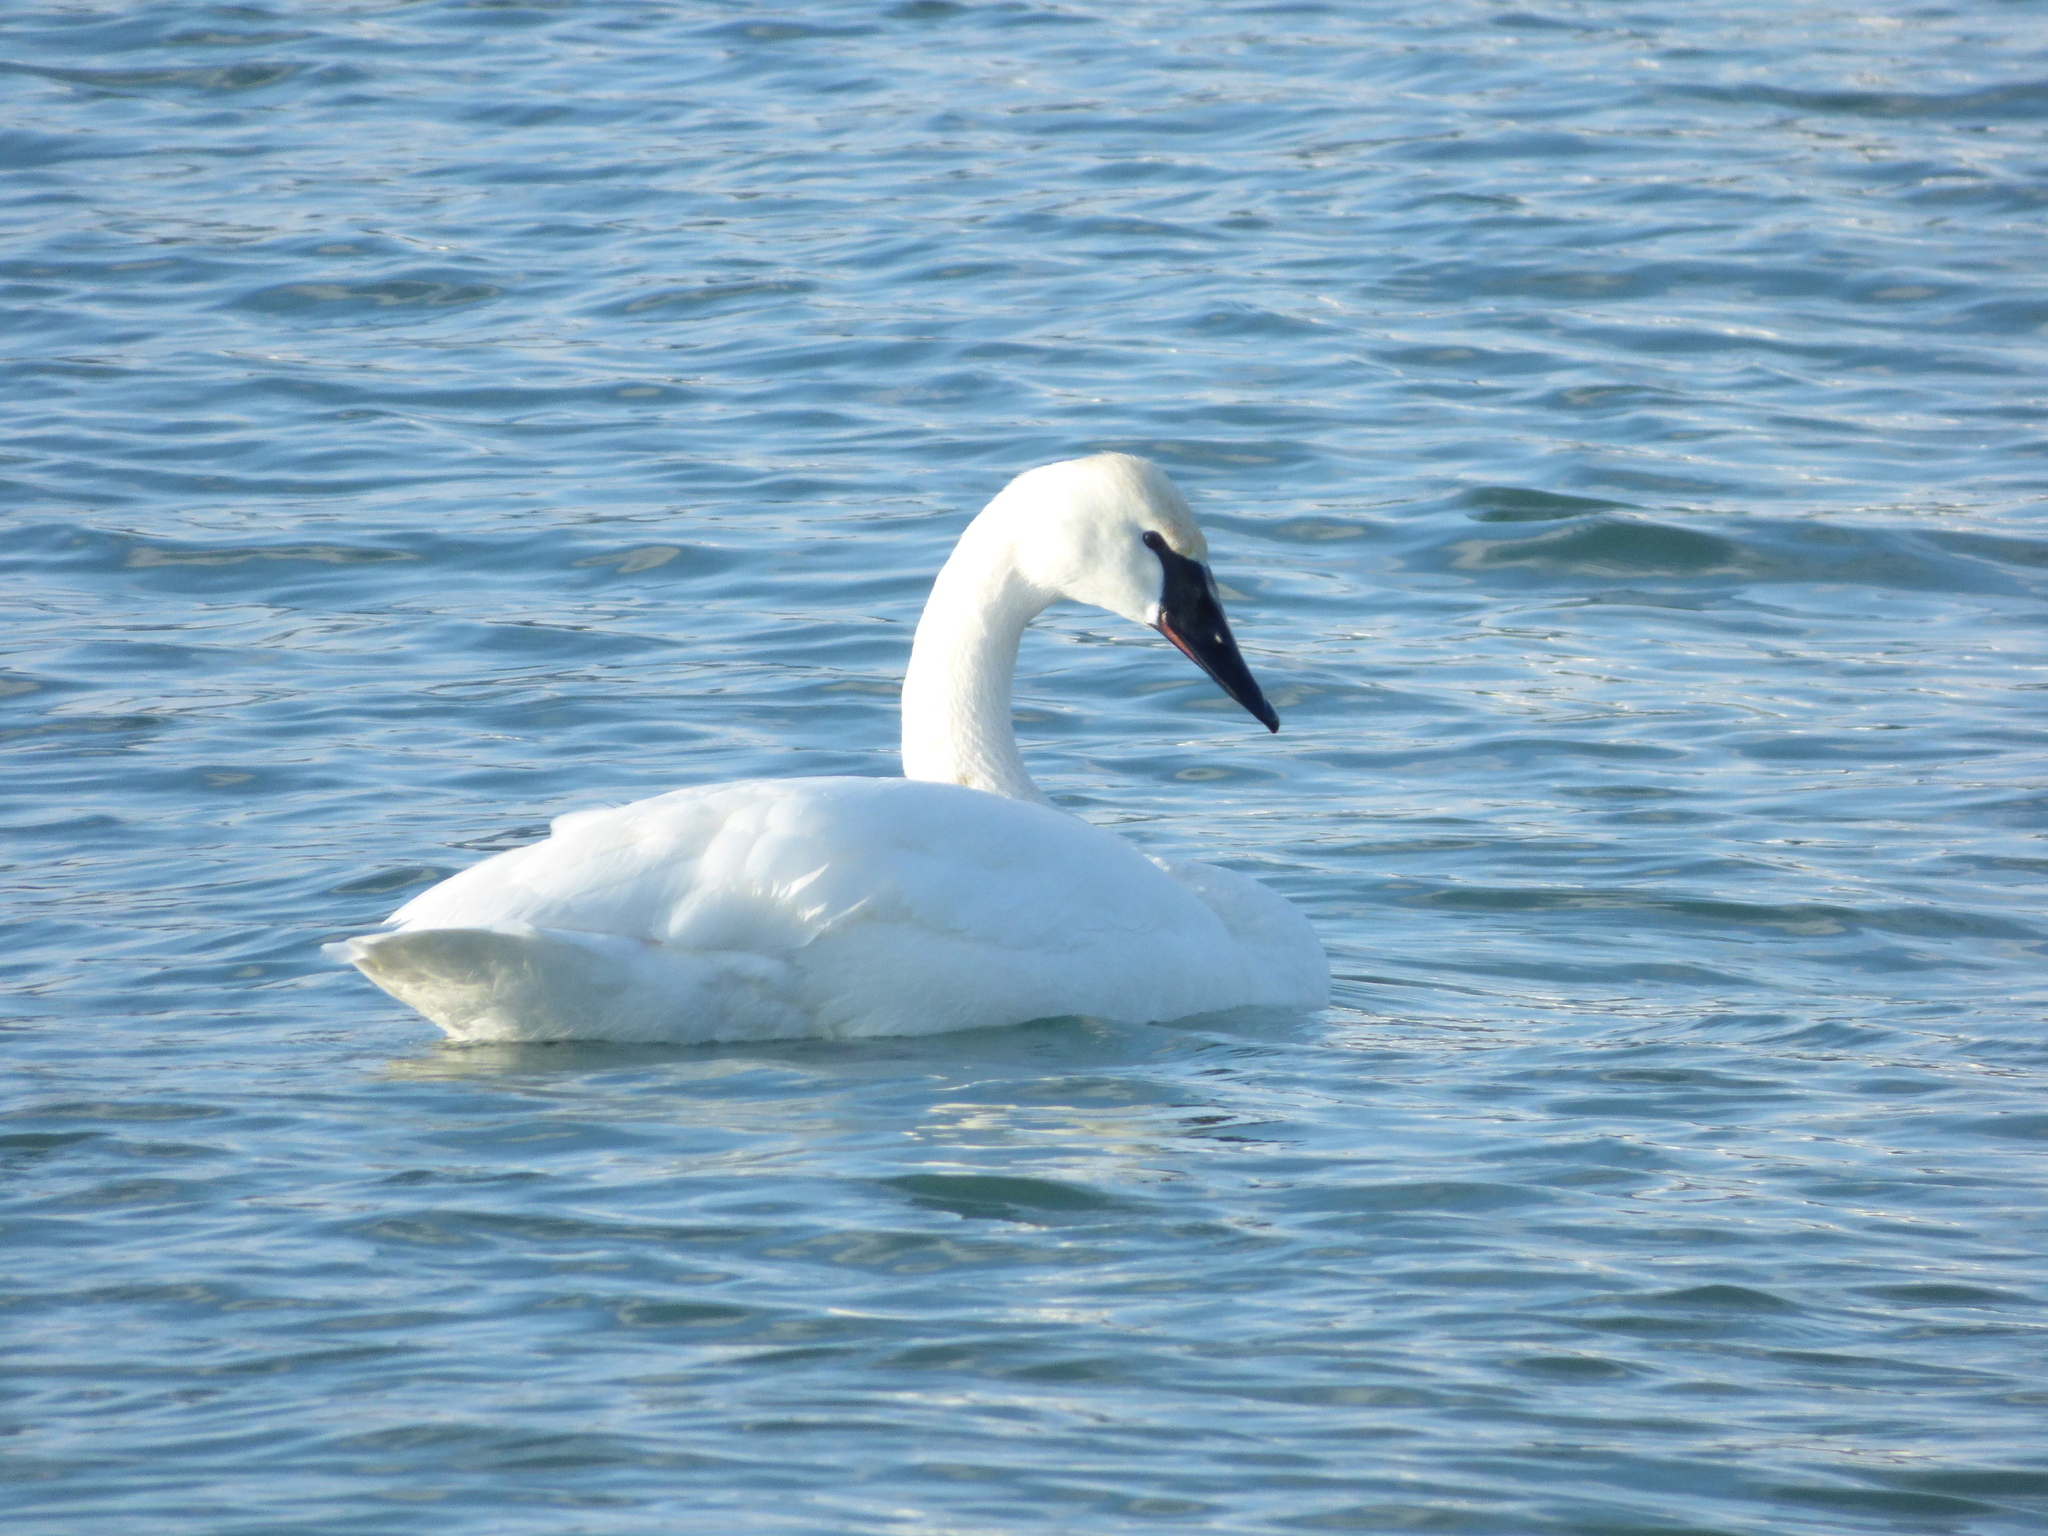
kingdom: Animalia
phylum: Chordata
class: Aves
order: Anseriformes
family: Anatidae
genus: Cygnus
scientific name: Cygnus buccinator
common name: Trumpeter swan
